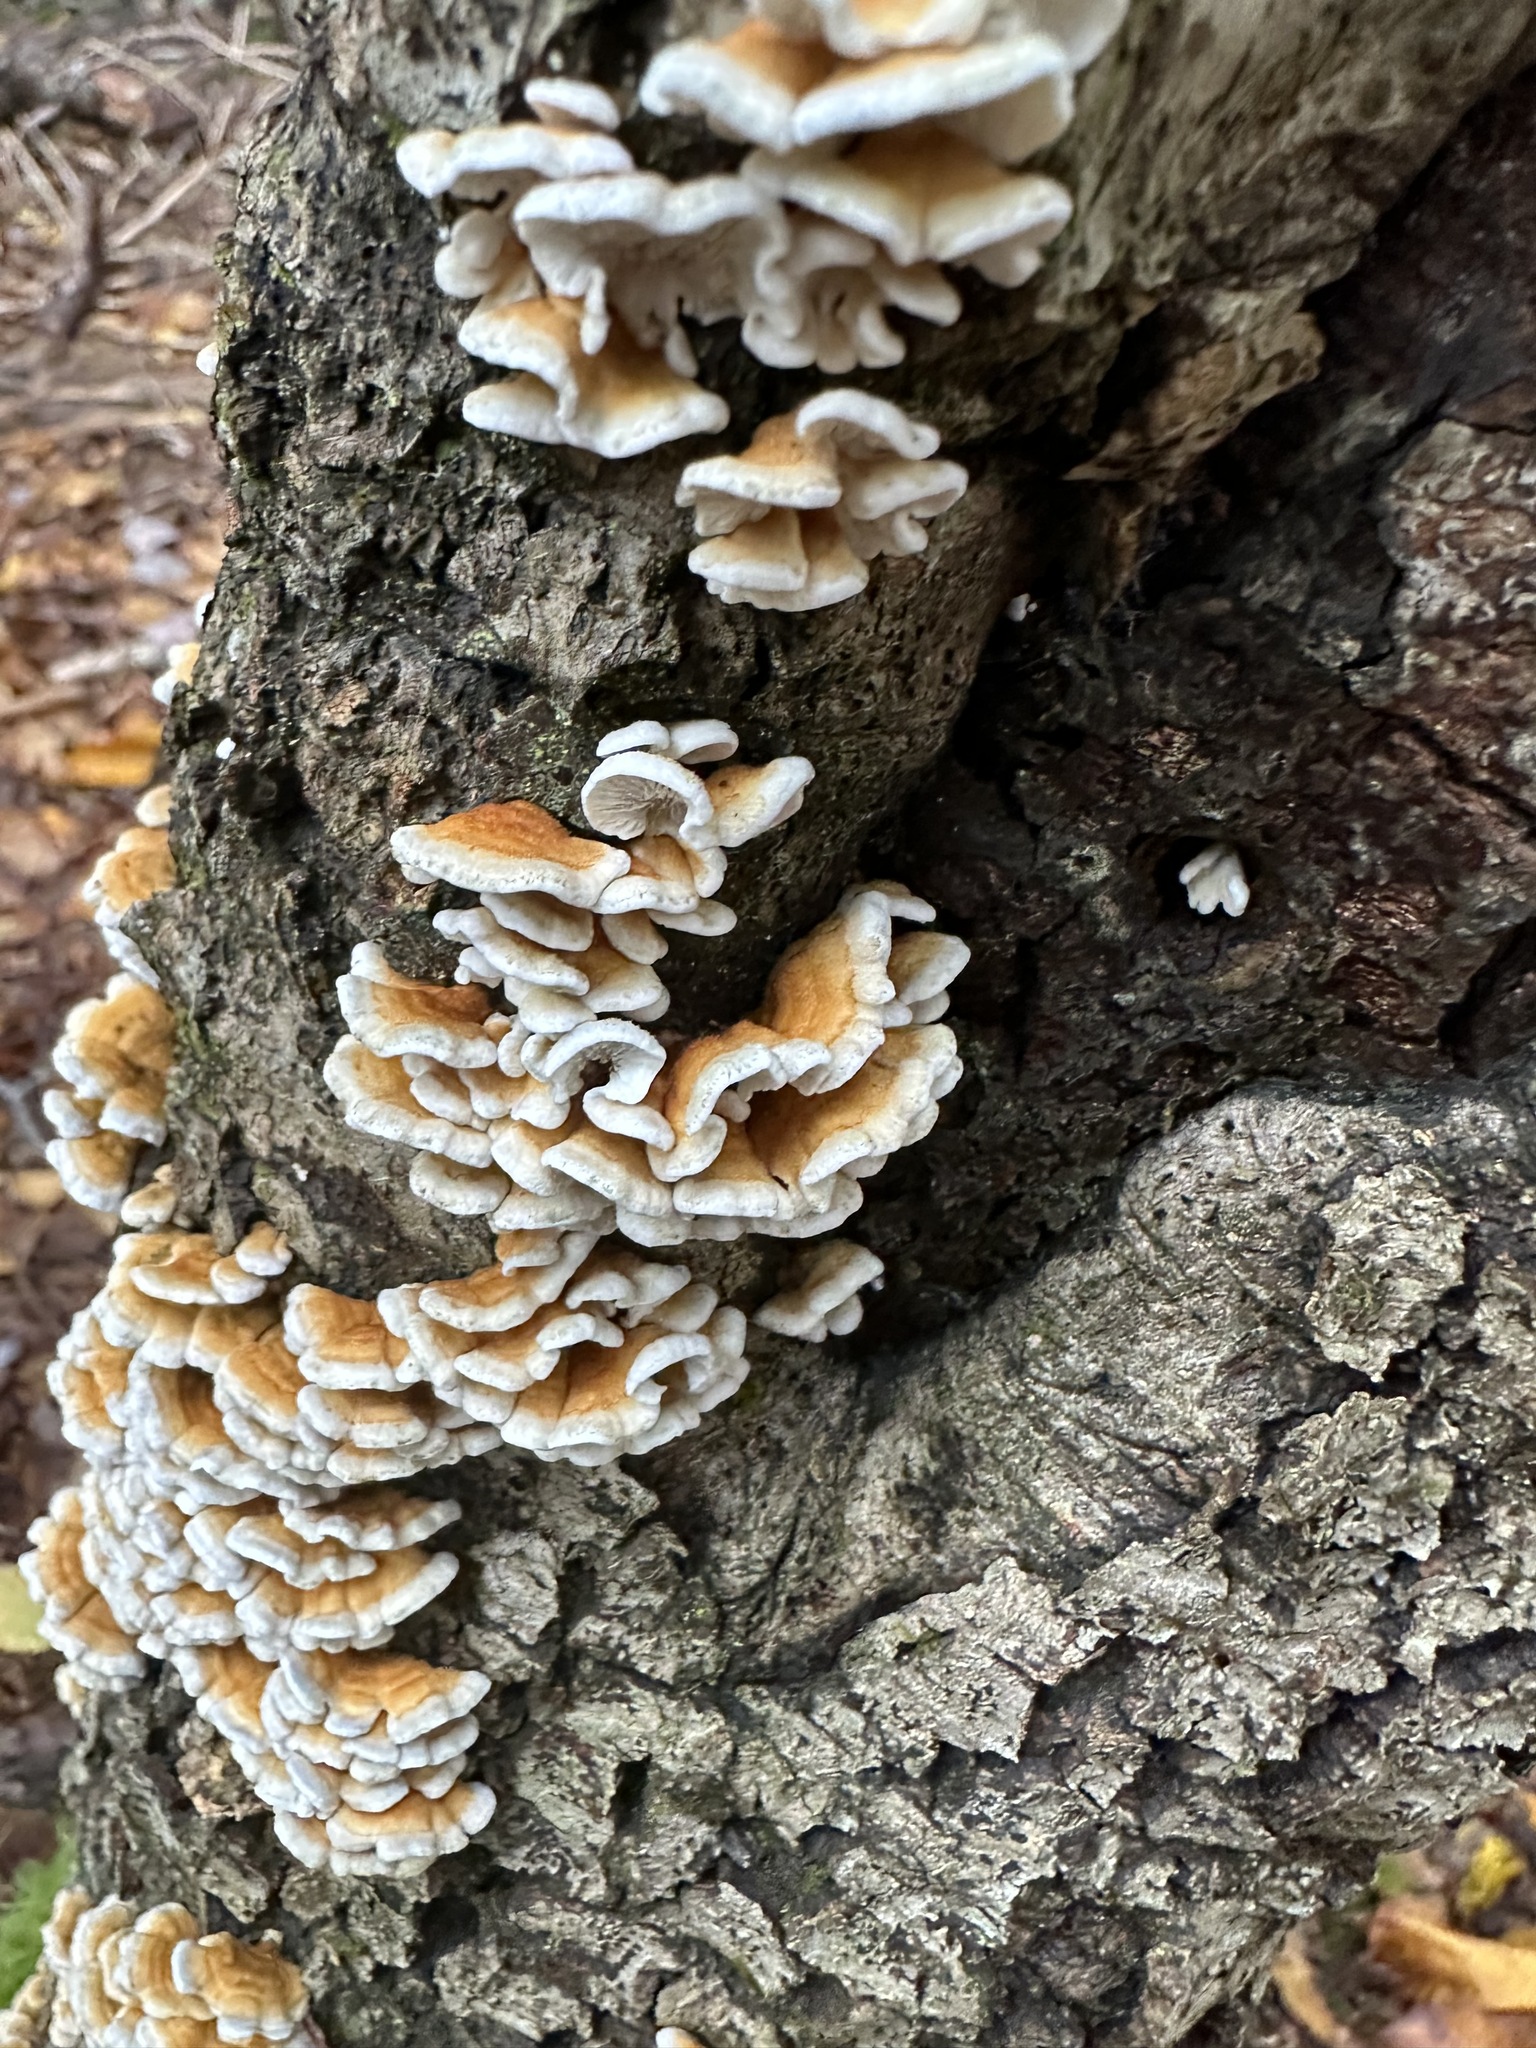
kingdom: Fungi
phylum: Basidiomycota
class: Agaricomycetes
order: Amylocorticiales
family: Amylocorticiaceae
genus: Plicaturopsis
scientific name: Plicaturopsis crispa
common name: Crimped gill
